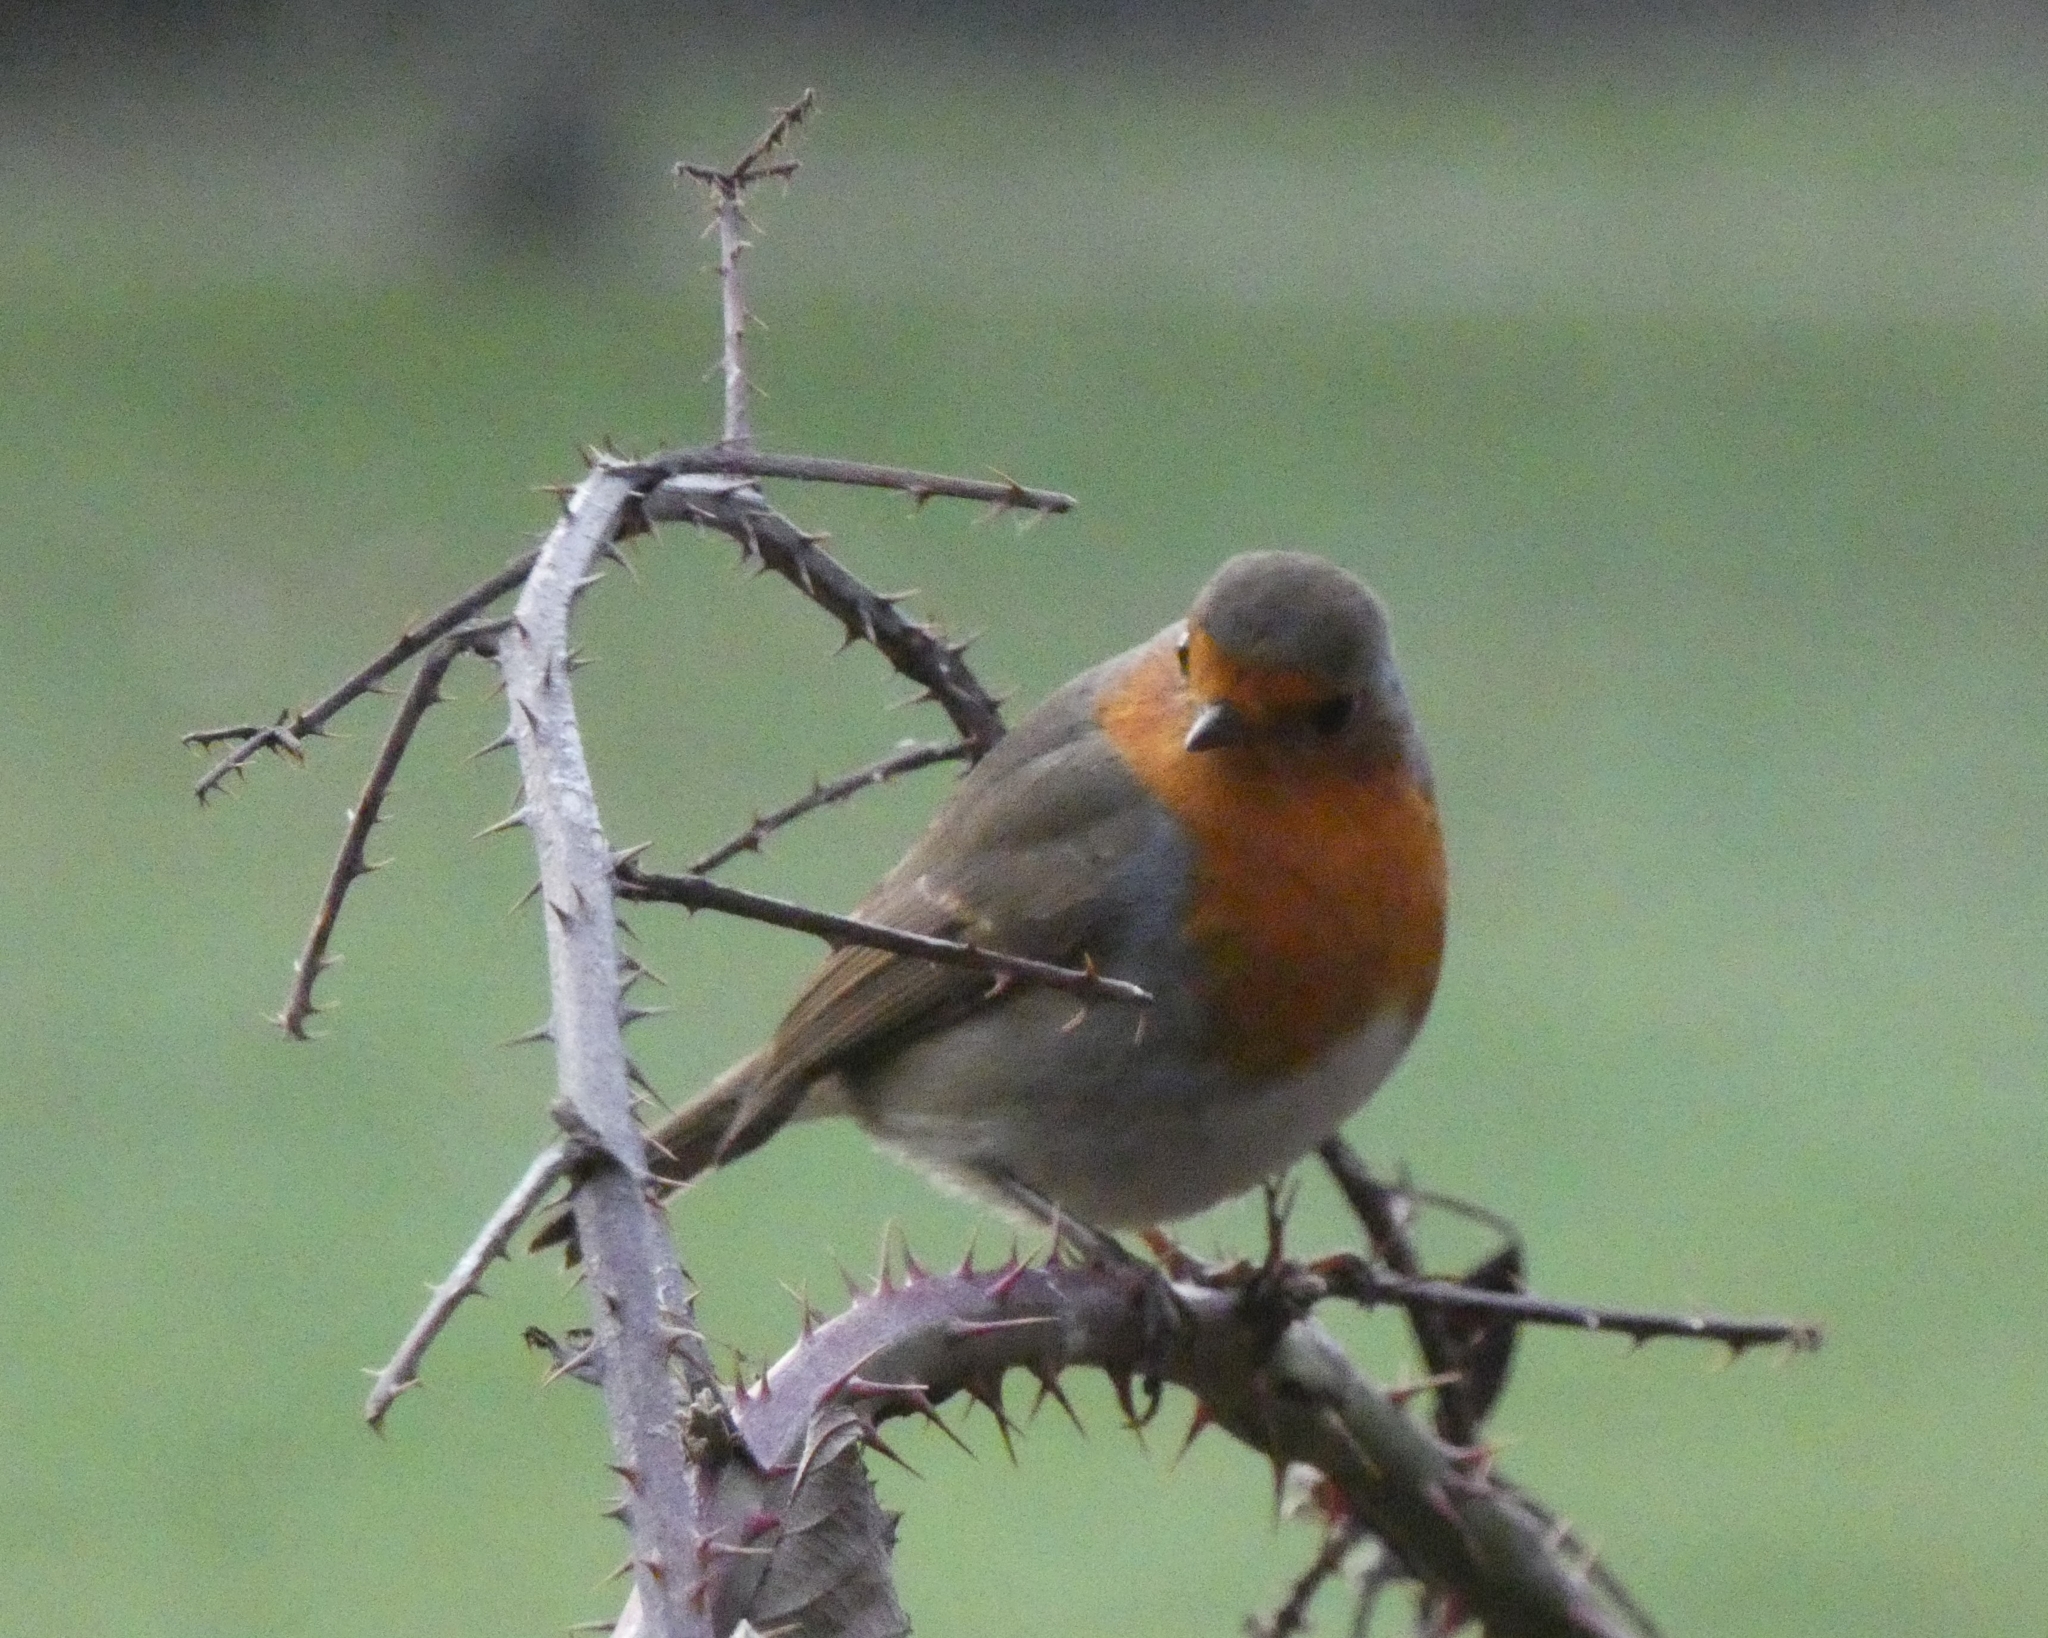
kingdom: Animalia
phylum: Chordata
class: Aves
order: Passeriformes
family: Muscicapidae
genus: Erithacus
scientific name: Erithacus rubecula
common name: European robin
